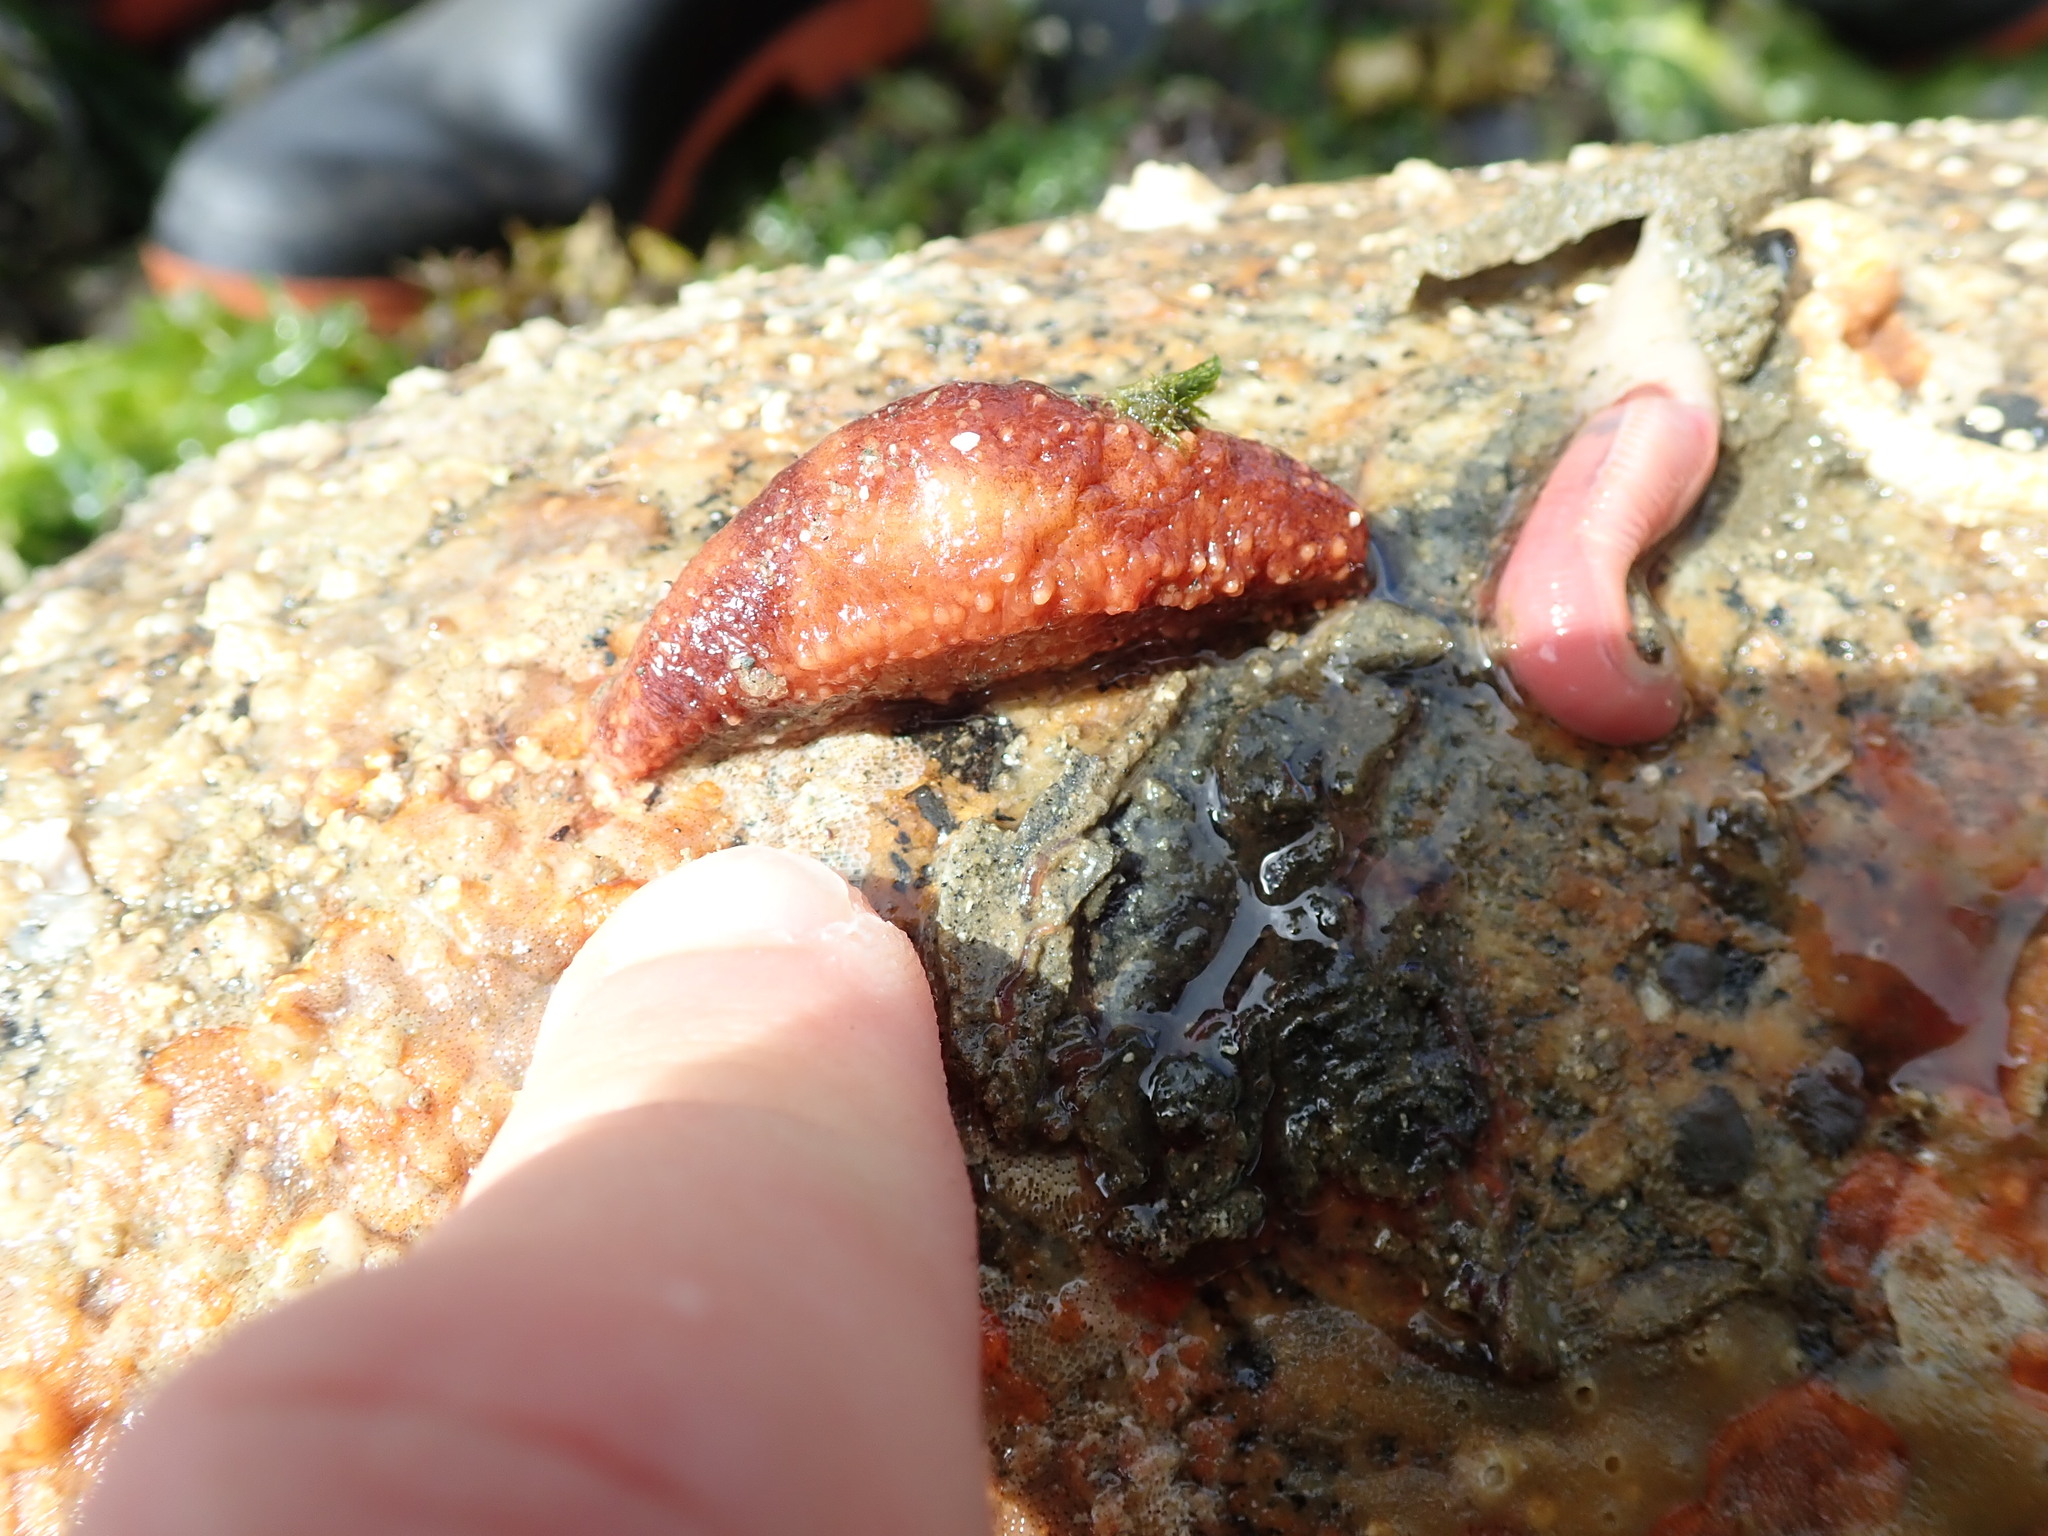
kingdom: Animalia
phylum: Echinodermata
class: Holothuroidea
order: Dendrochirotida
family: Cucumariidae
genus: Cucumaria
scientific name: Cucumaria miniata
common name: Orange sea cucumber
